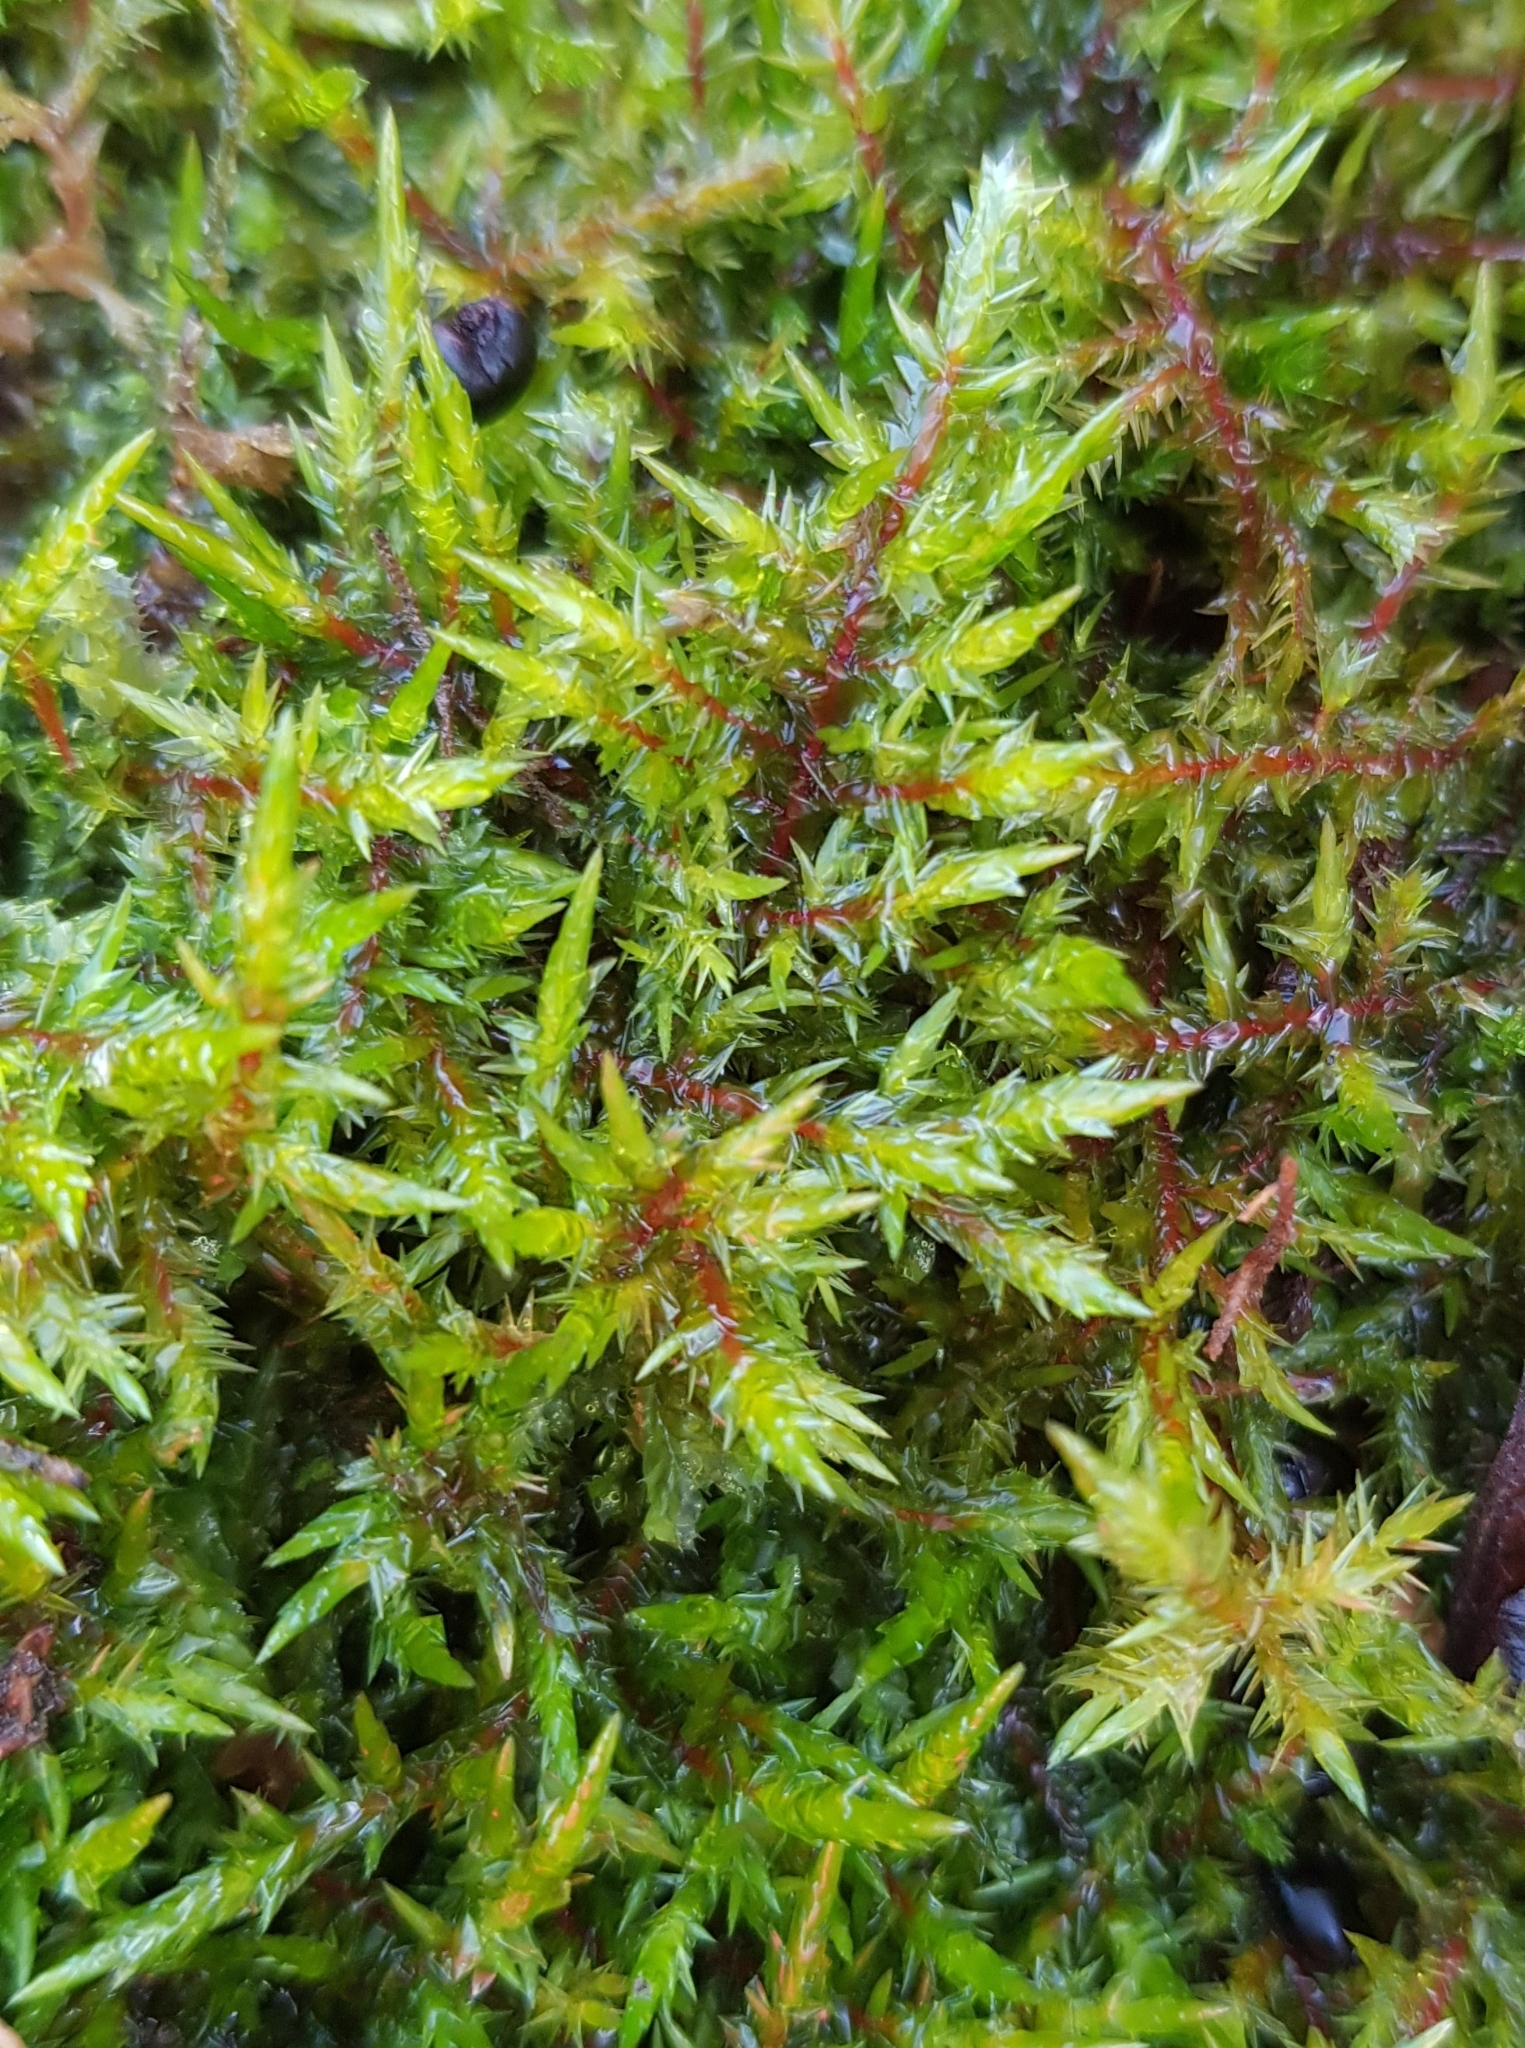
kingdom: Plantae
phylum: Bryophyta
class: Bryopsida
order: Hypnales
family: Pylaisiaceae
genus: Calliergonella
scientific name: Calliergonella cuspidata
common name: Common large wetland moss
